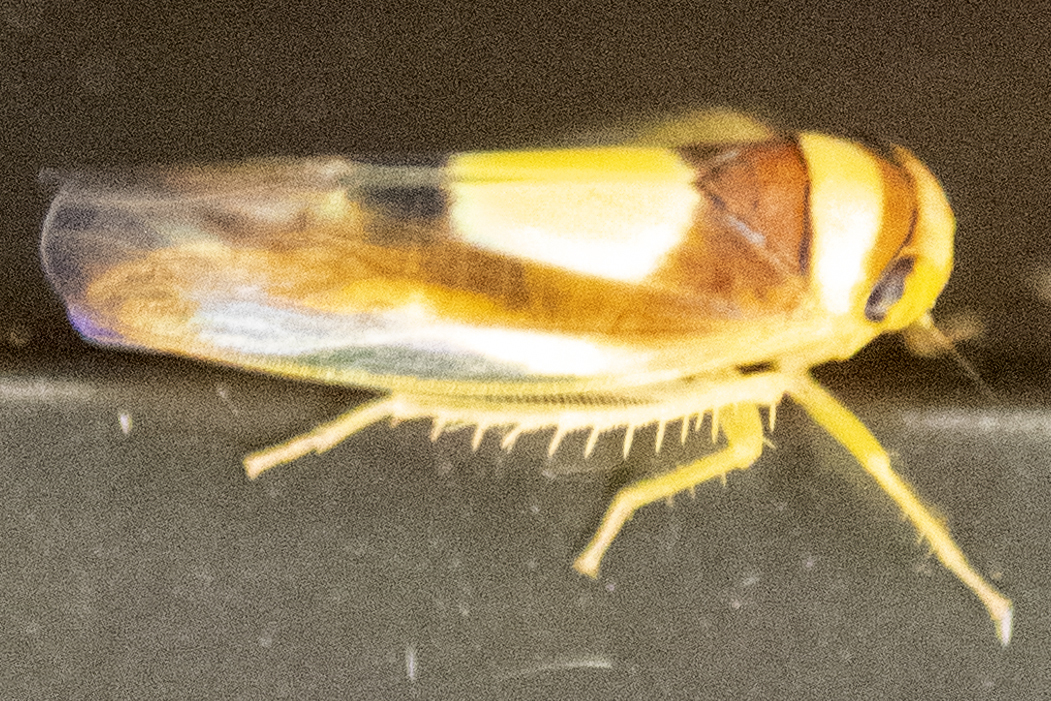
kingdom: Animalia
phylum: Arthropoda
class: Insecta
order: Hemiptera
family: Cicadellidae
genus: Colladonus
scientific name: Colladonus clitellarius
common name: The saddleback leafhopper
